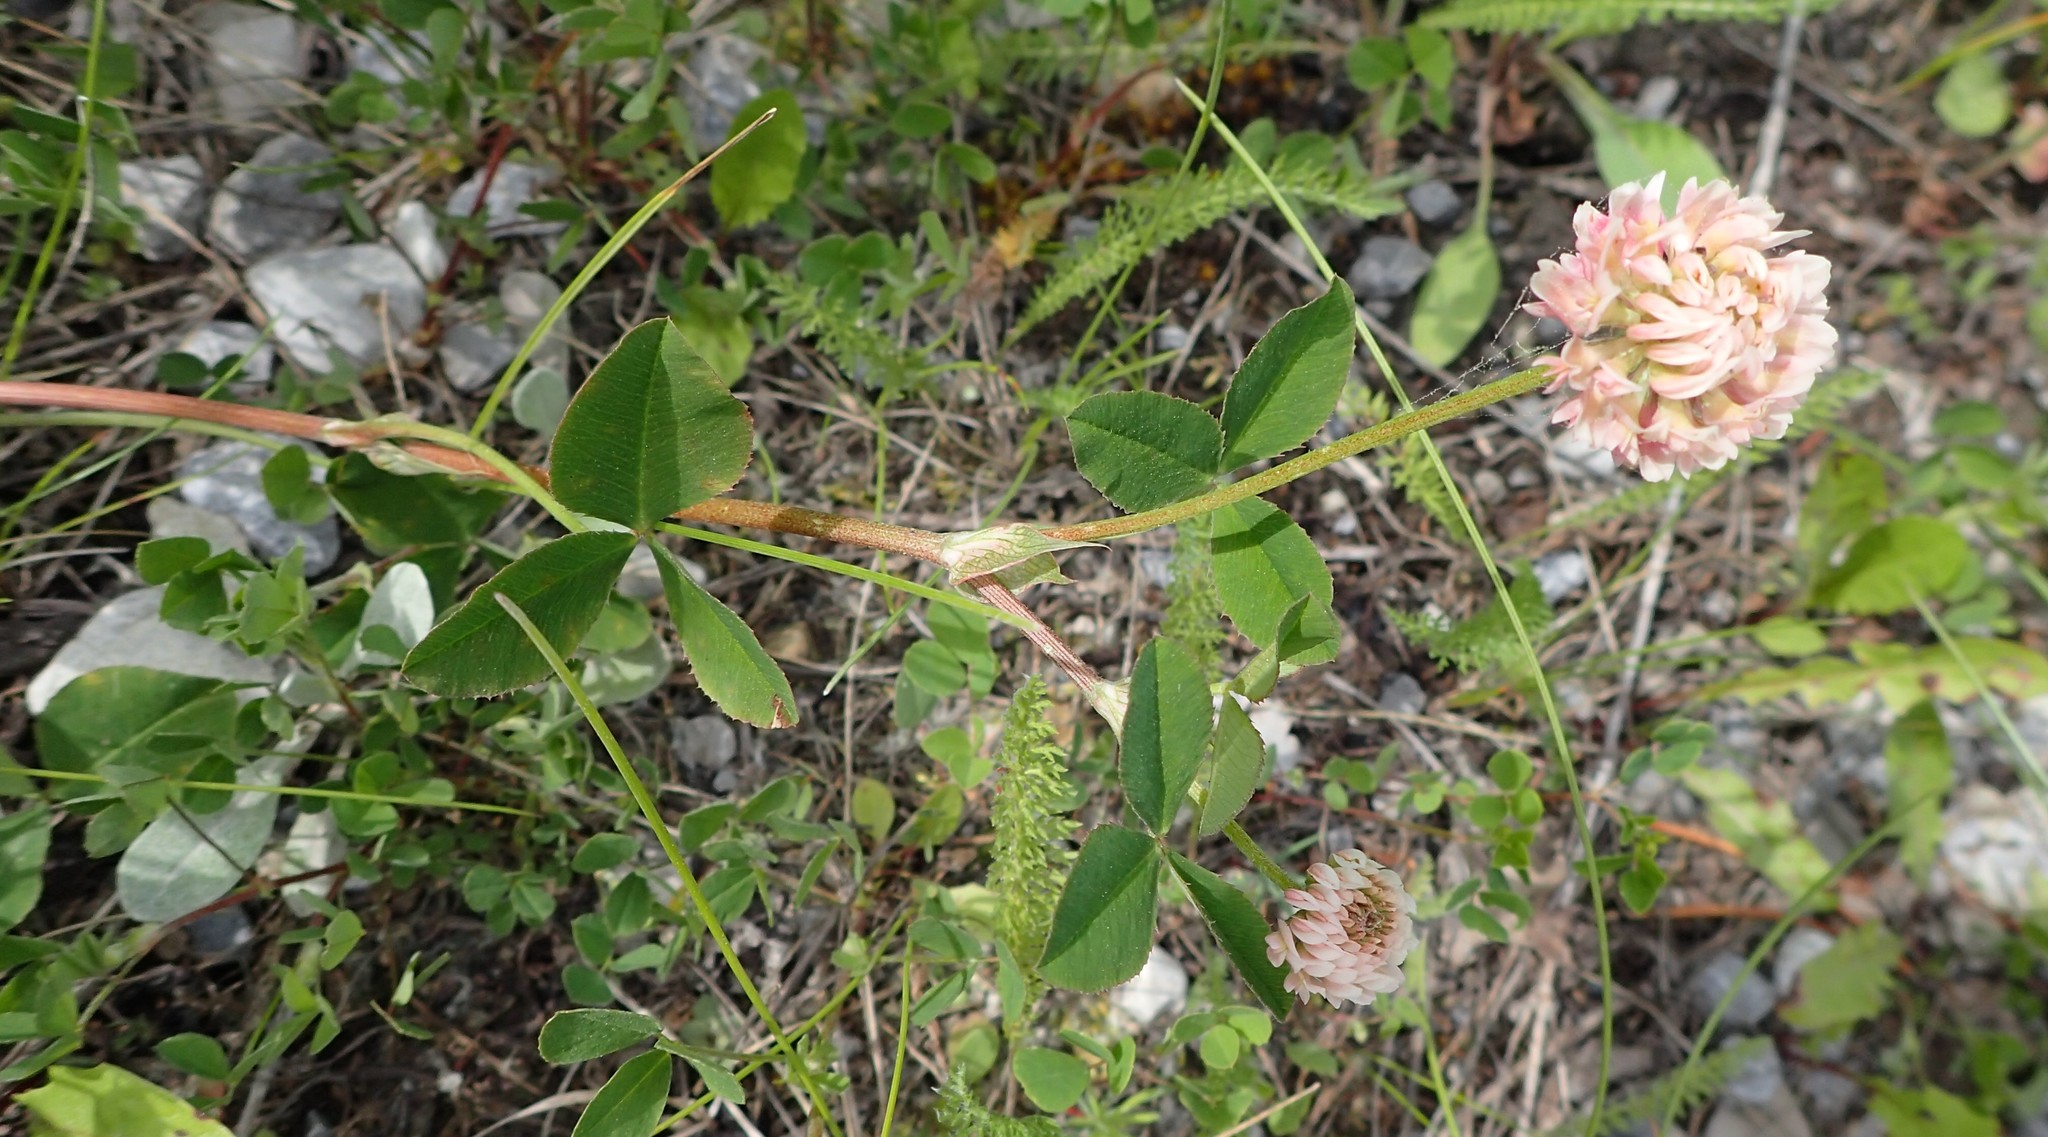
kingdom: Plantae
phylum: Tracheophyta
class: Magnoliopsida
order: Fabales
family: Fabaceae
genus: Trifolium
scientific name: Trifolium hybridum
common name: Alsike clover
